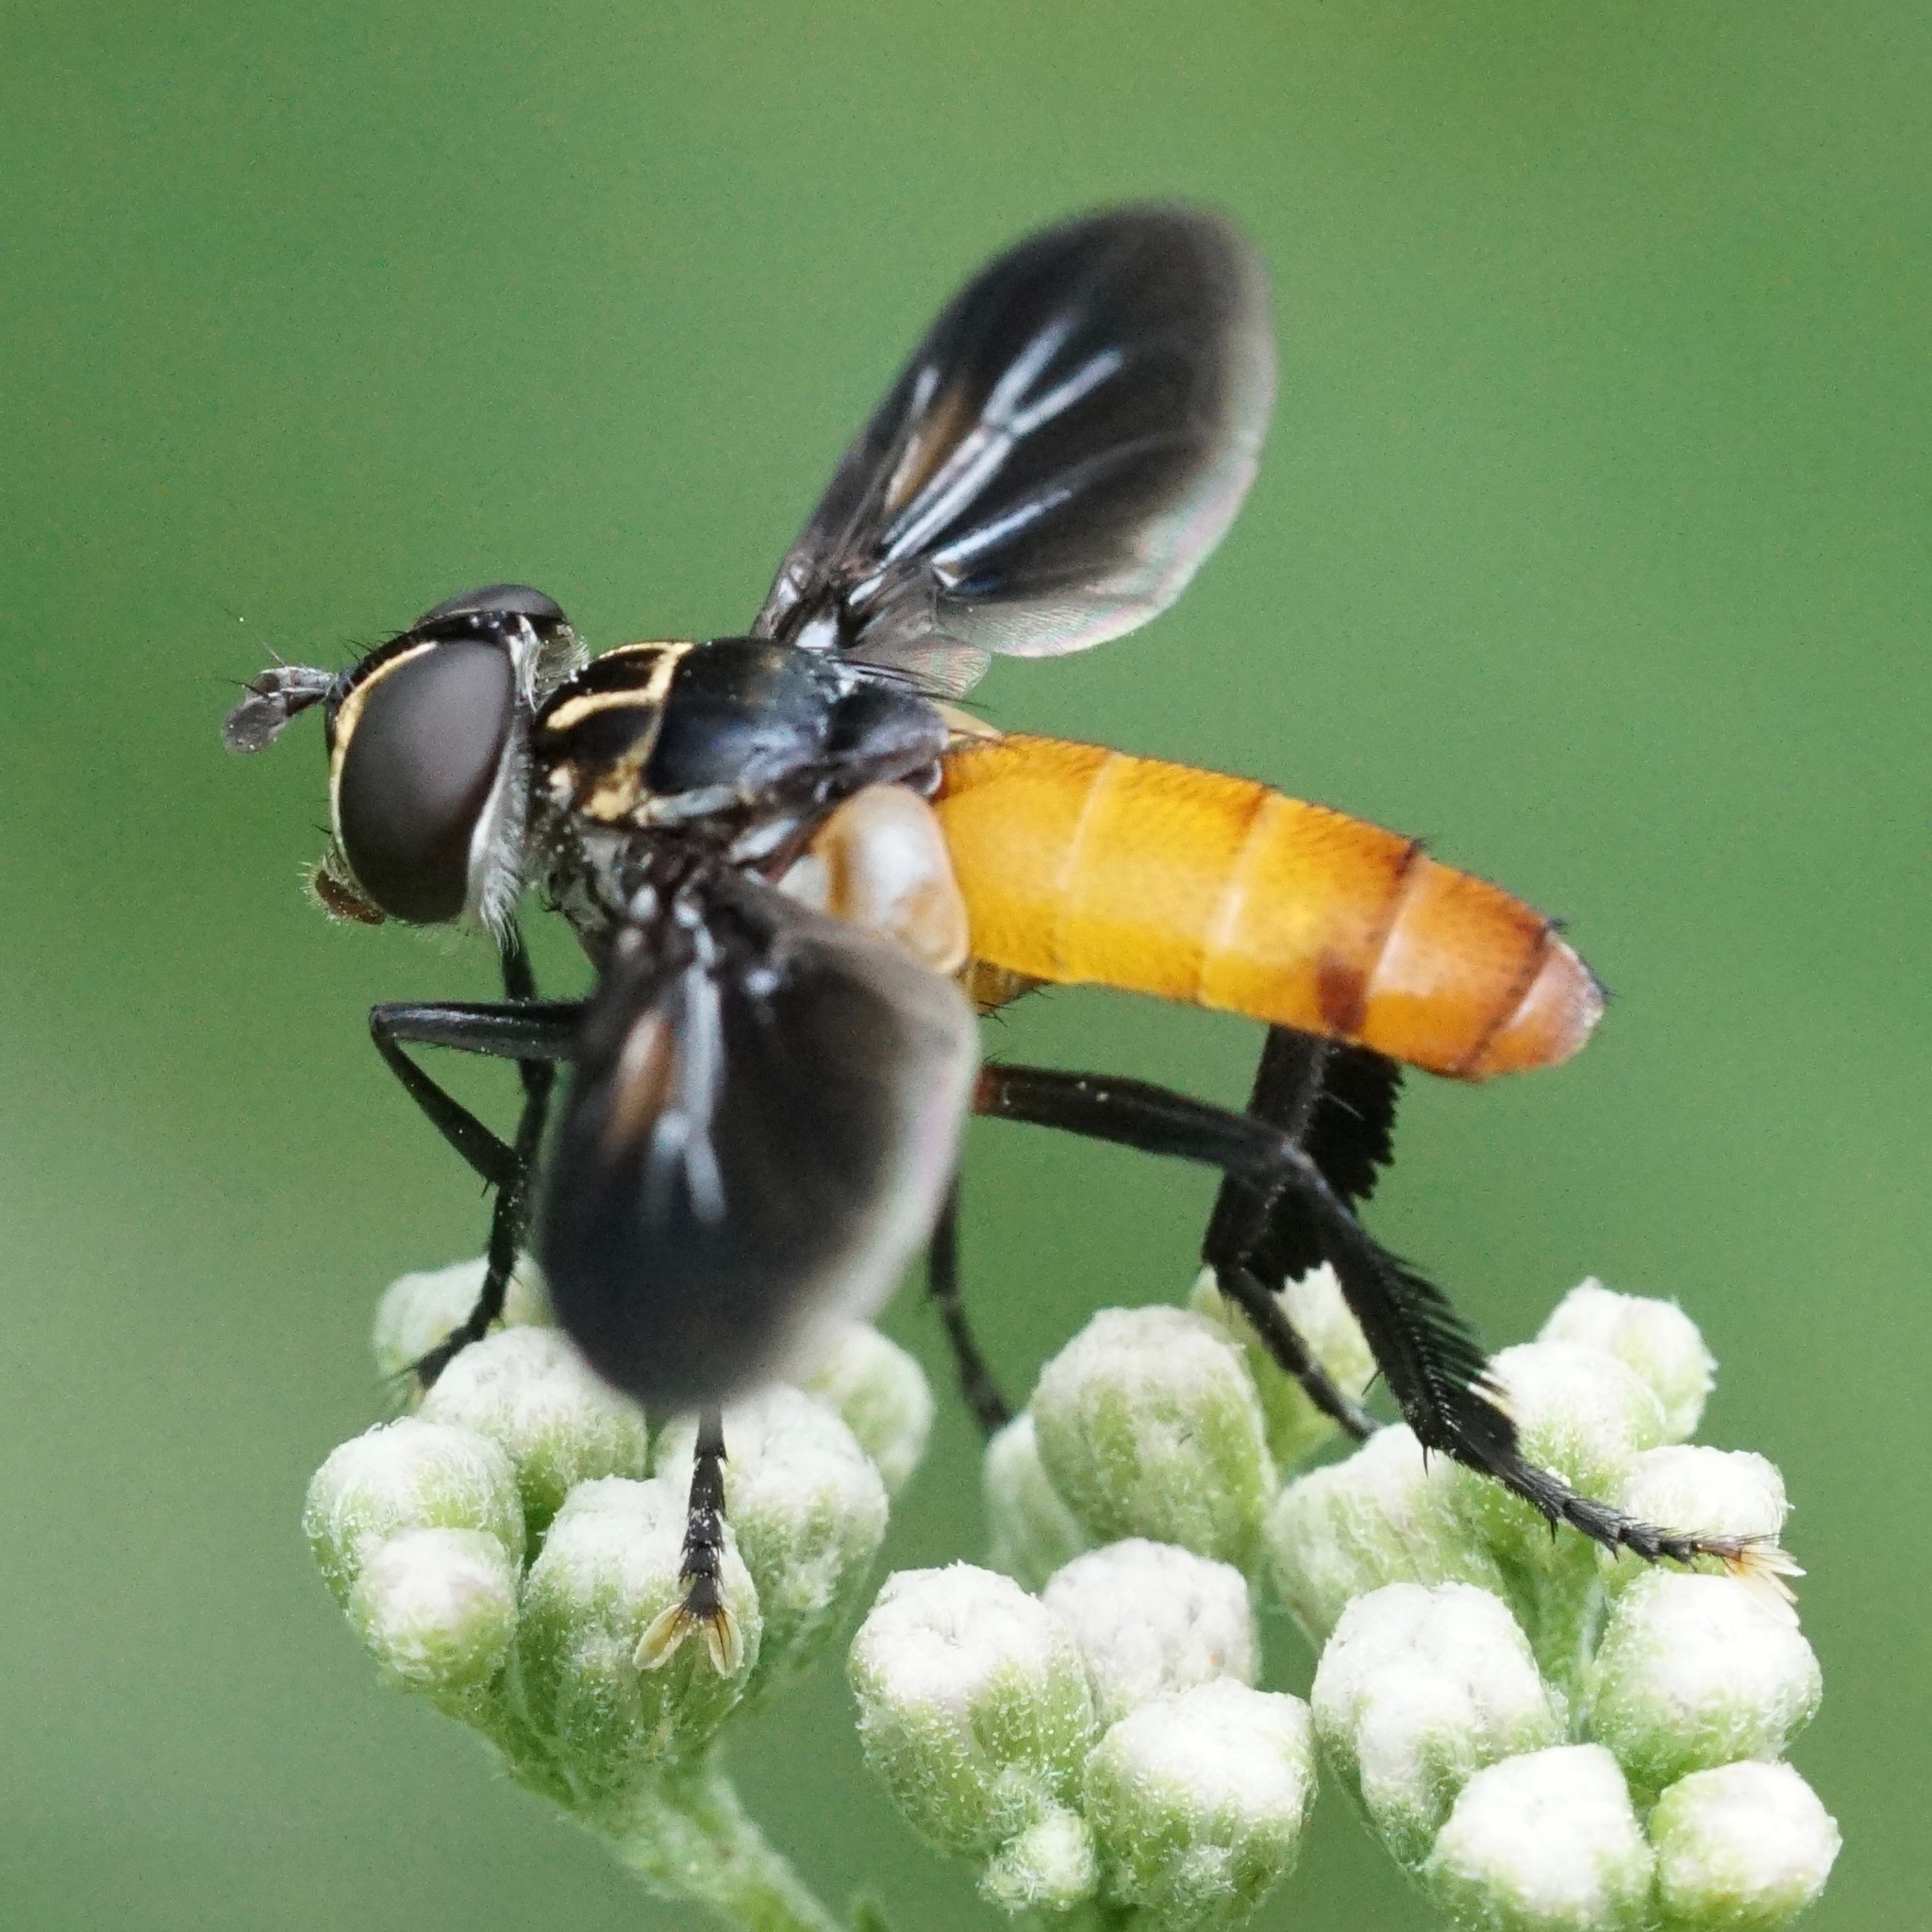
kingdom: Animalia
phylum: Arthropoda
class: Insecta
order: Diptera
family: Tachinidae
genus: Trichopoda
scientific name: Trichopoda pennipes
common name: Tachinid fly
